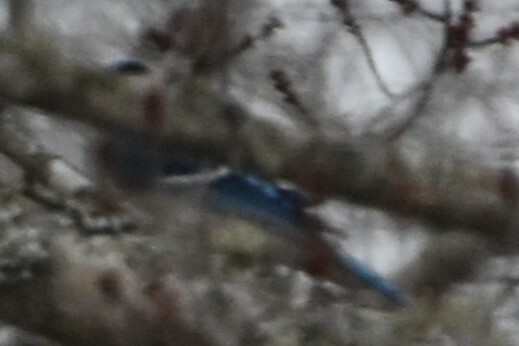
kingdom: Animalia
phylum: Chordata
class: Aves
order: Passeriformes
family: Corvidae
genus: Cyanocitta
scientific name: Cyanocitta cristata
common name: Blue jay
